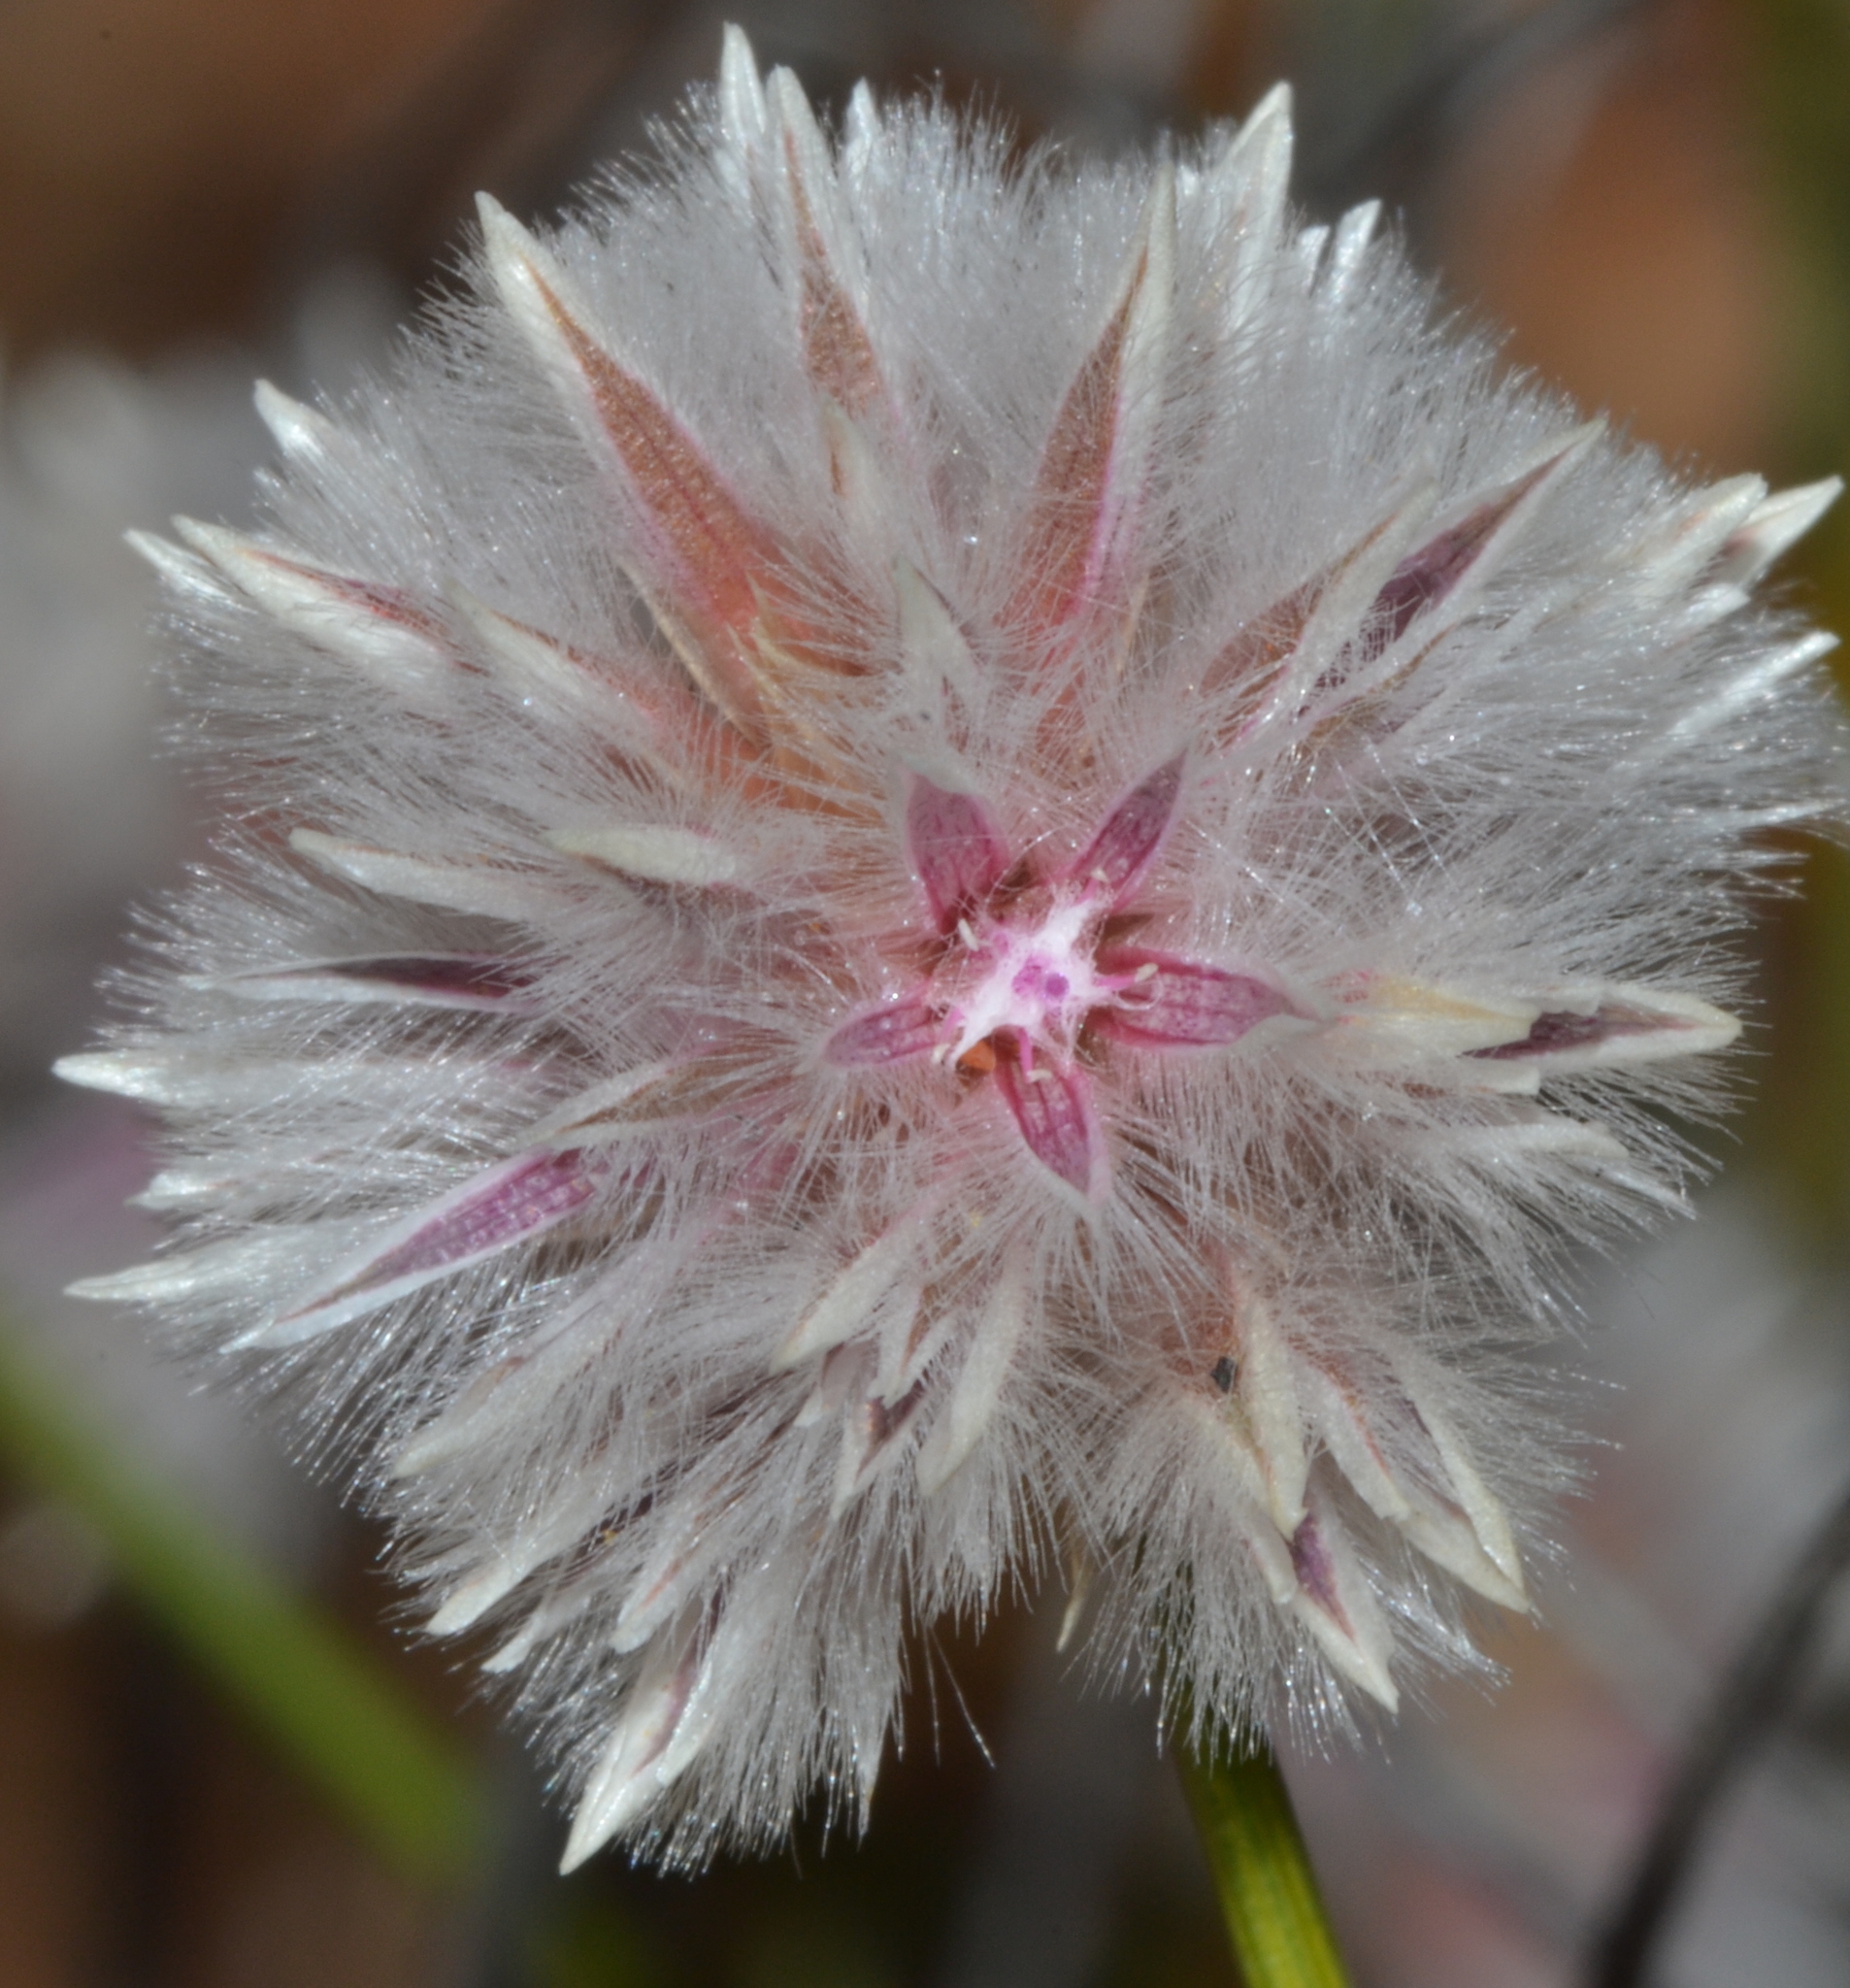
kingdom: Plantae
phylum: Tracheophyta
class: Magnoliopsida
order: Caryophyllales
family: Amaranthaceae
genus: Ptilotus
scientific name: Ptilotus schwartzii
